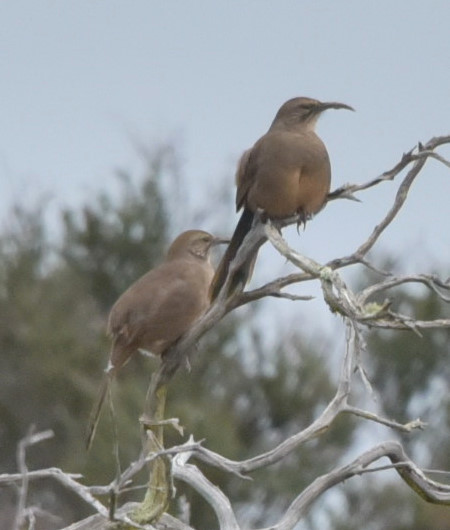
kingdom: Animalia
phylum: Chordata
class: Aves
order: Passeriformes
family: Mimidae
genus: Toxostoma
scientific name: Toxostoma redivivum
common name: California thrasher
